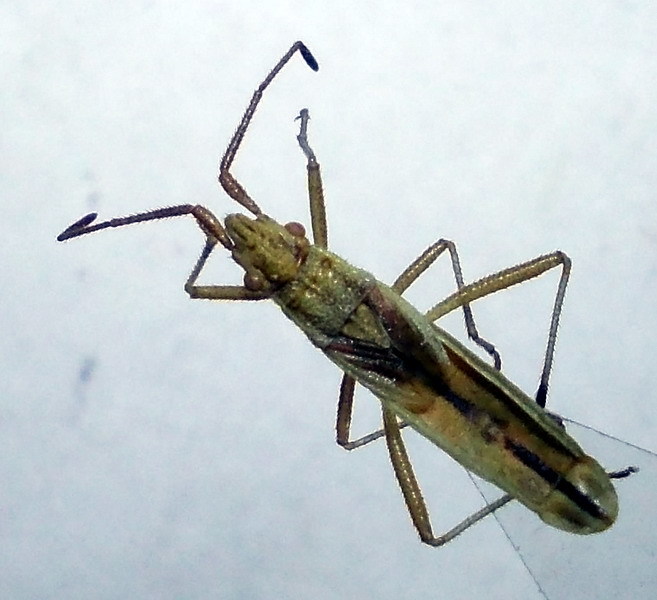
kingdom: Animalia
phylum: Arthropoda
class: Insecta
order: Hemiptera
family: Rhopalidae
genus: Myrmus
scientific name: Myrmus miriformis
